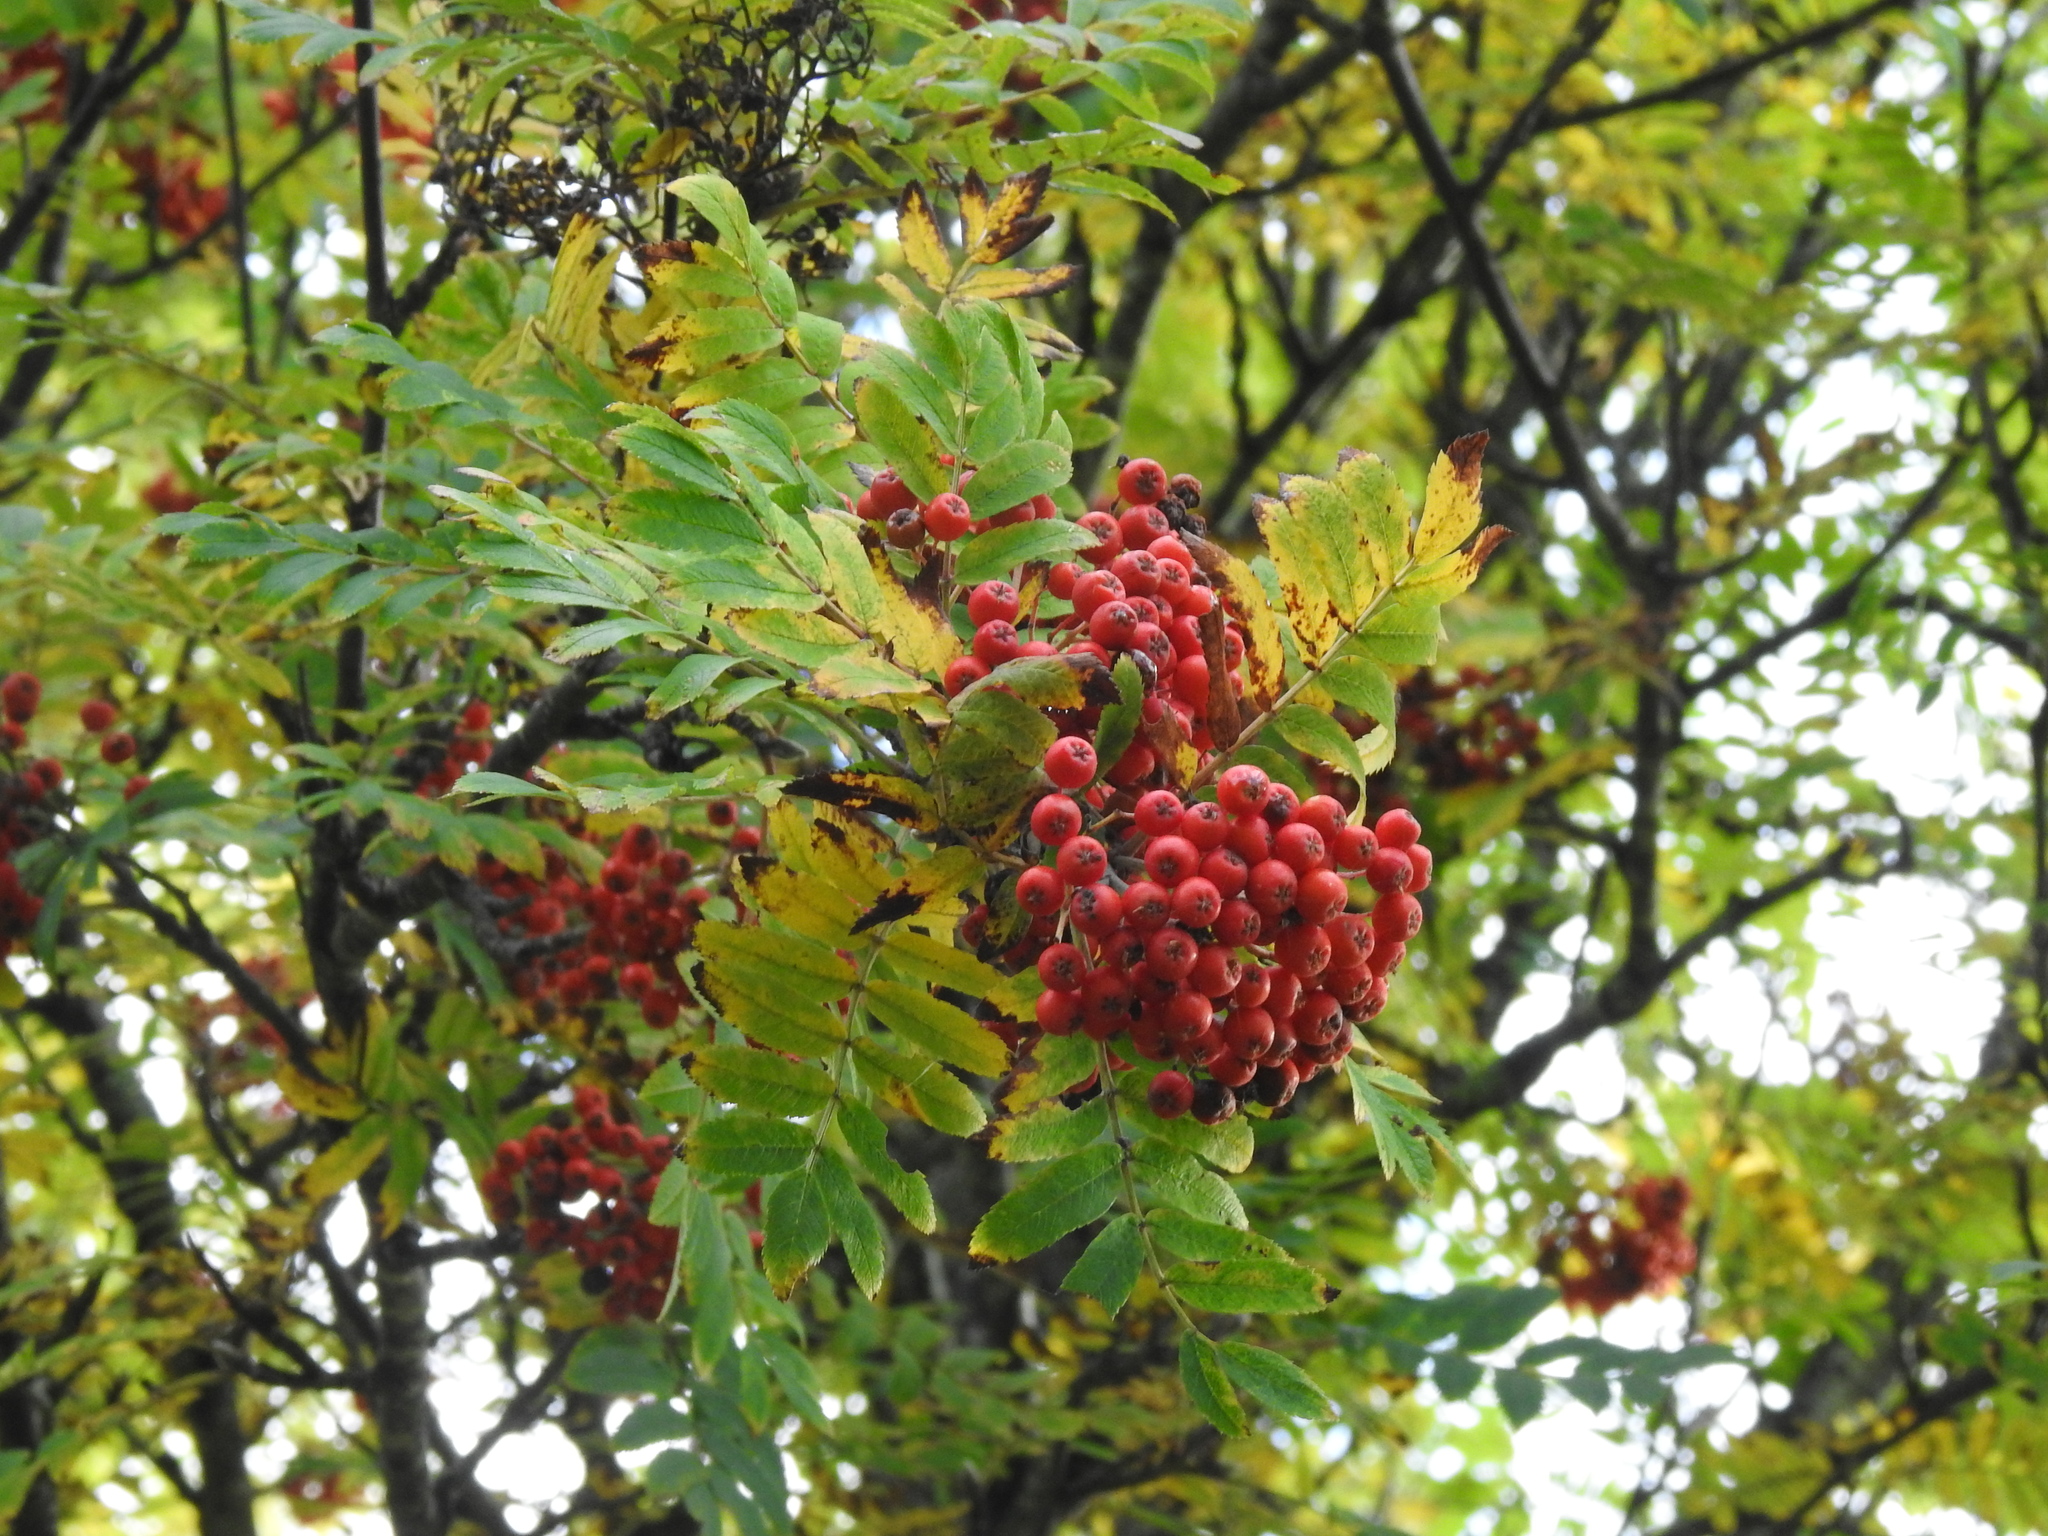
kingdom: Plantae
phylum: Tracheophyta
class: Magnoliopsida
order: Rosales
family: Rosaceae
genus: Sorbus
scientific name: Sorbus aucuparia
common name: Rowan
